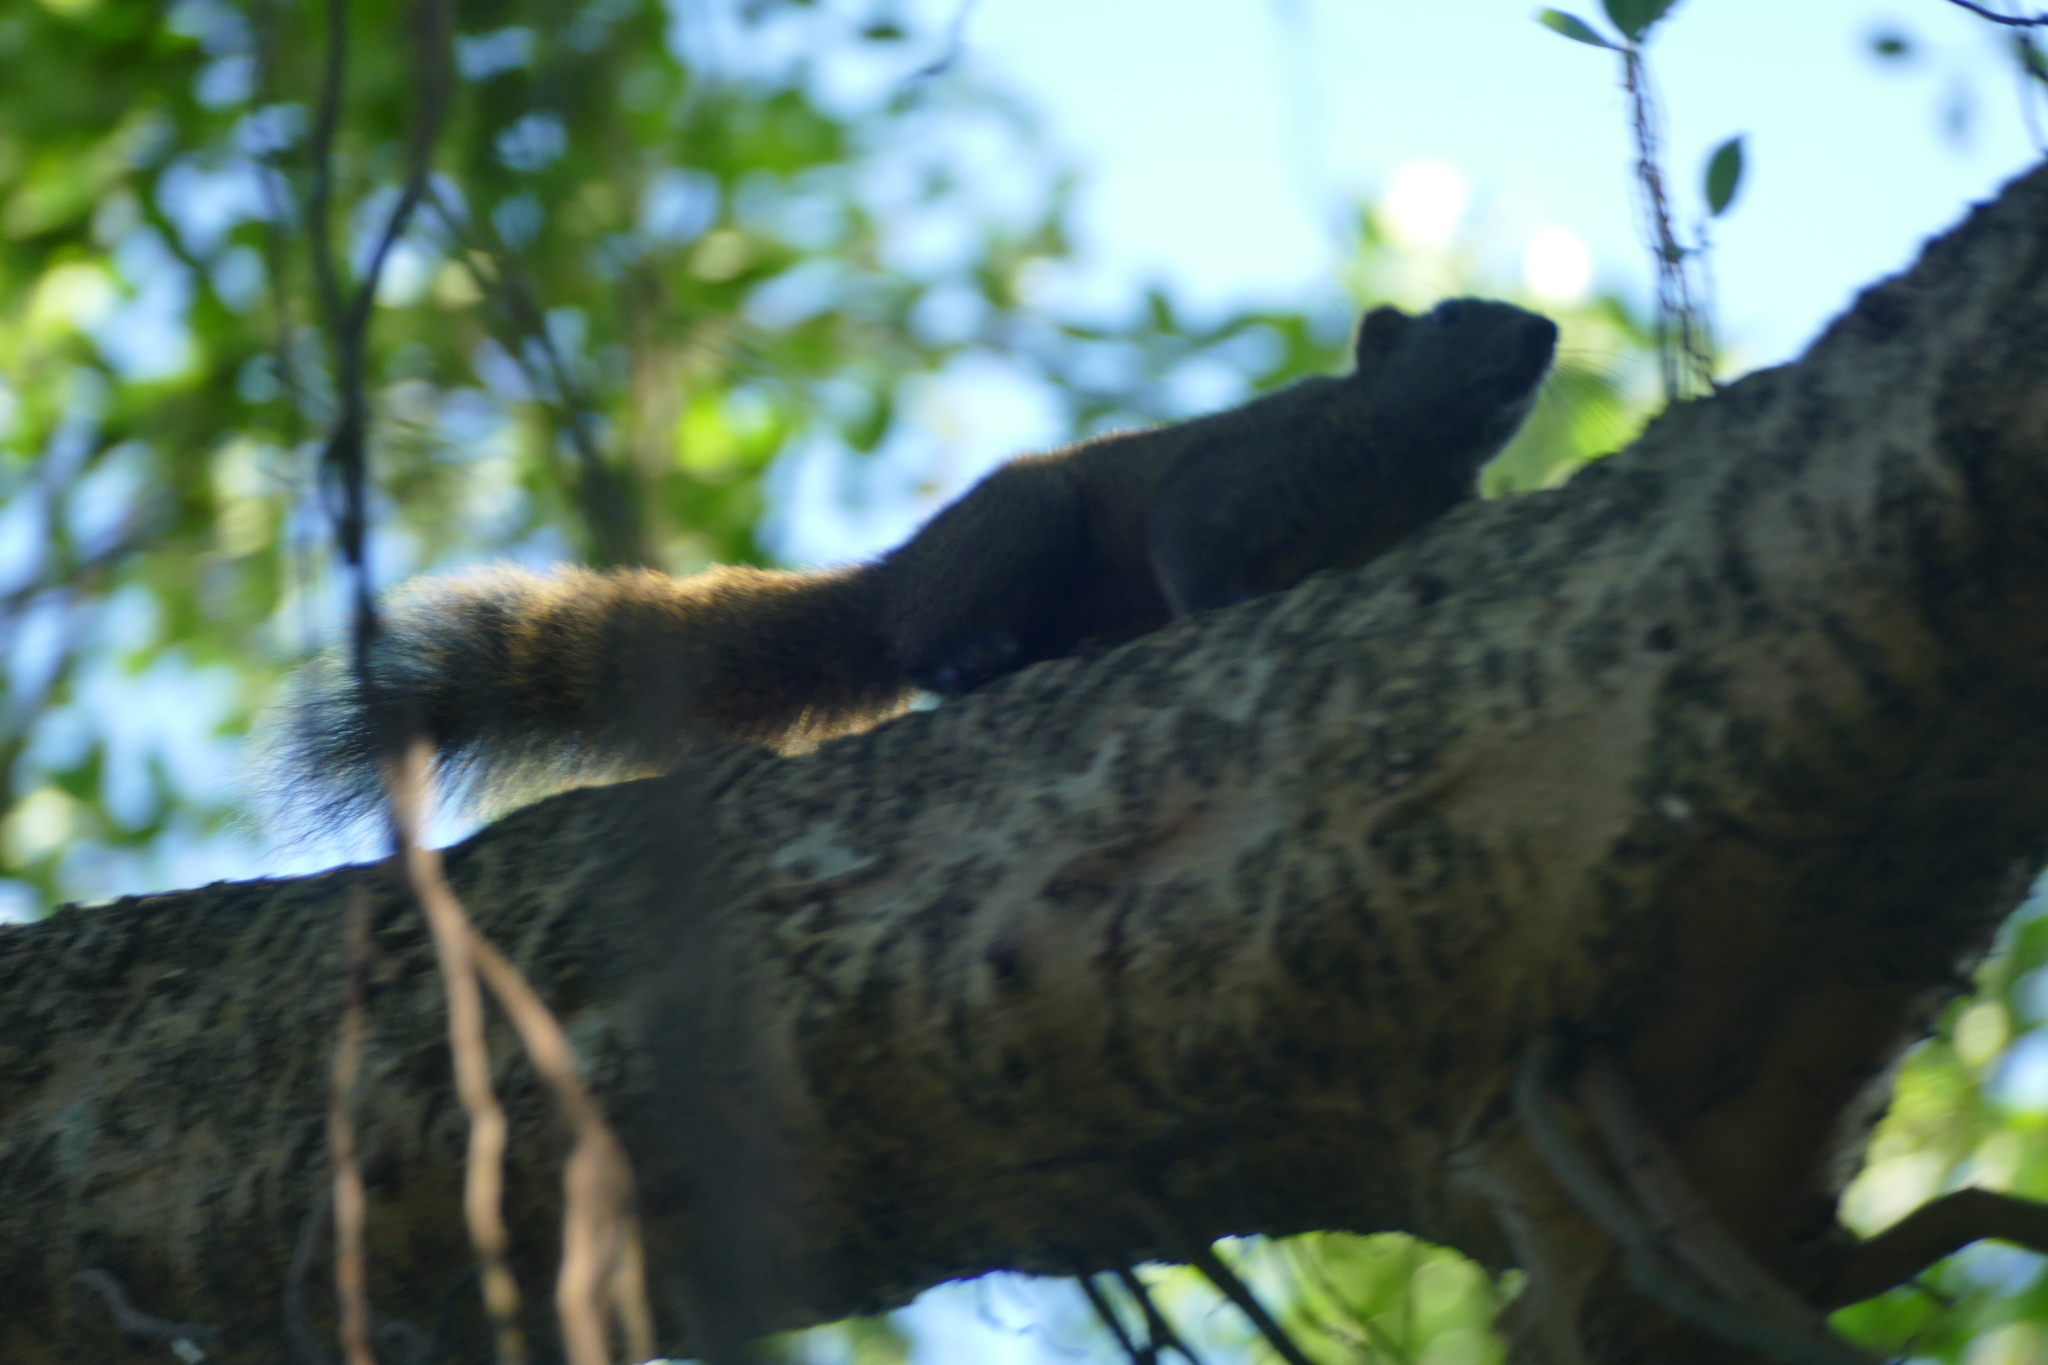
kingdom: Animalia
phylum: Chordata
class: Mammalia
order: Rodentia
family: Sciuridae
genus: Callosciurus
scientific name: Callosciurus erythraeus
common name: Pallas's squirrel
